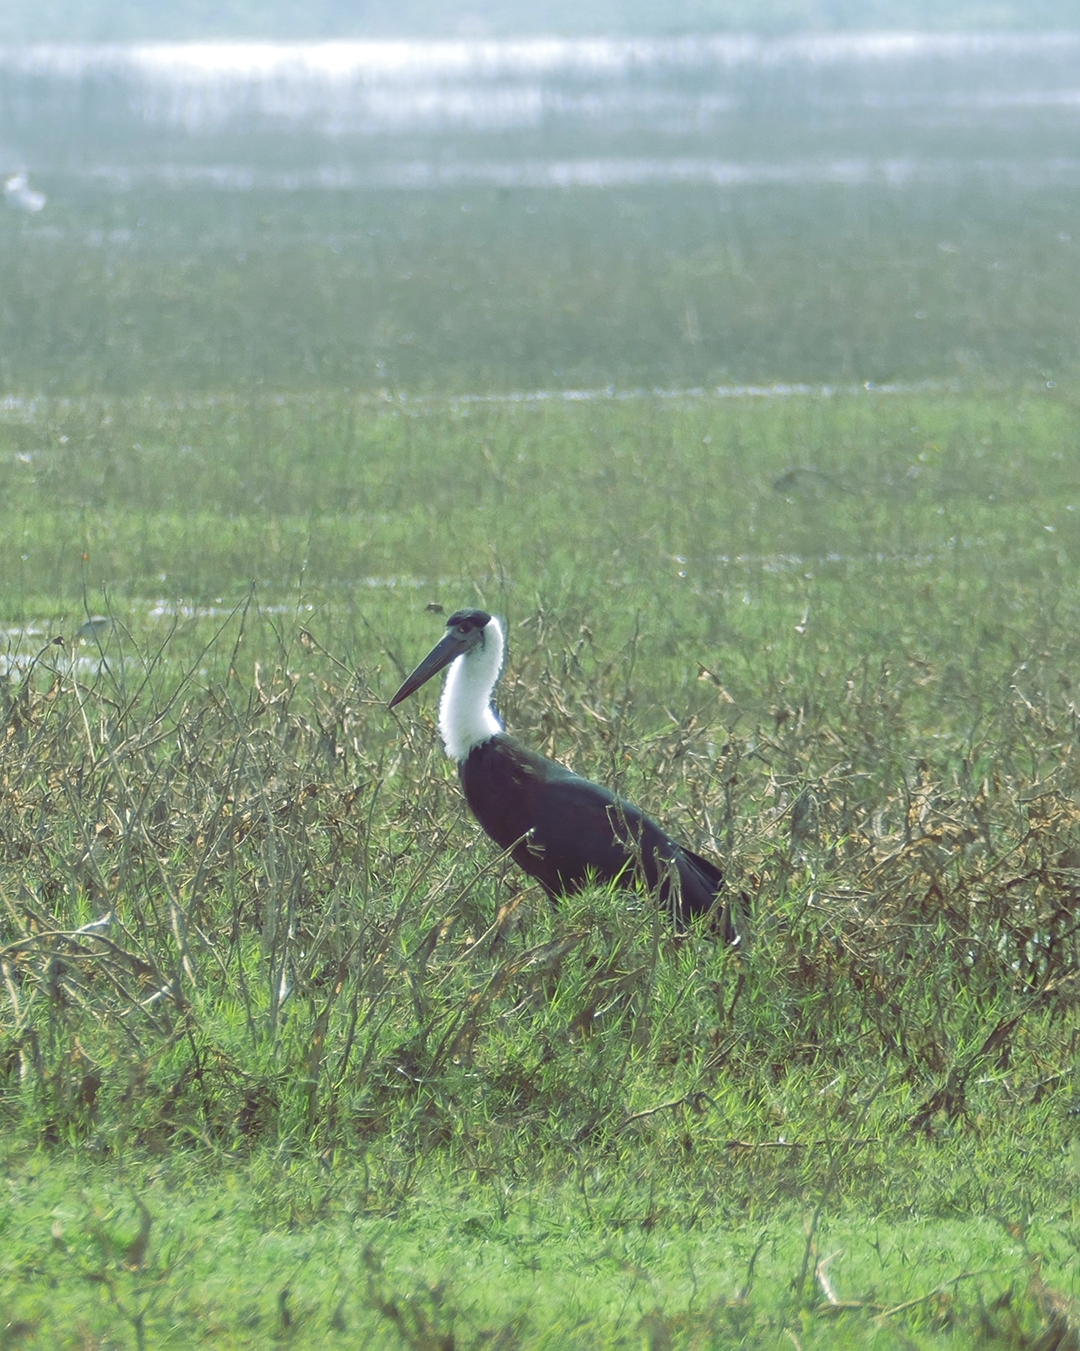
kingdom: Animalia
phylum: Chordata
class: Aves
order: Ciconiiformes
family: Ciconiidae
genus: Ciconia
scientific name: Ciconia episcopus
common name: Woolly-necked stork
